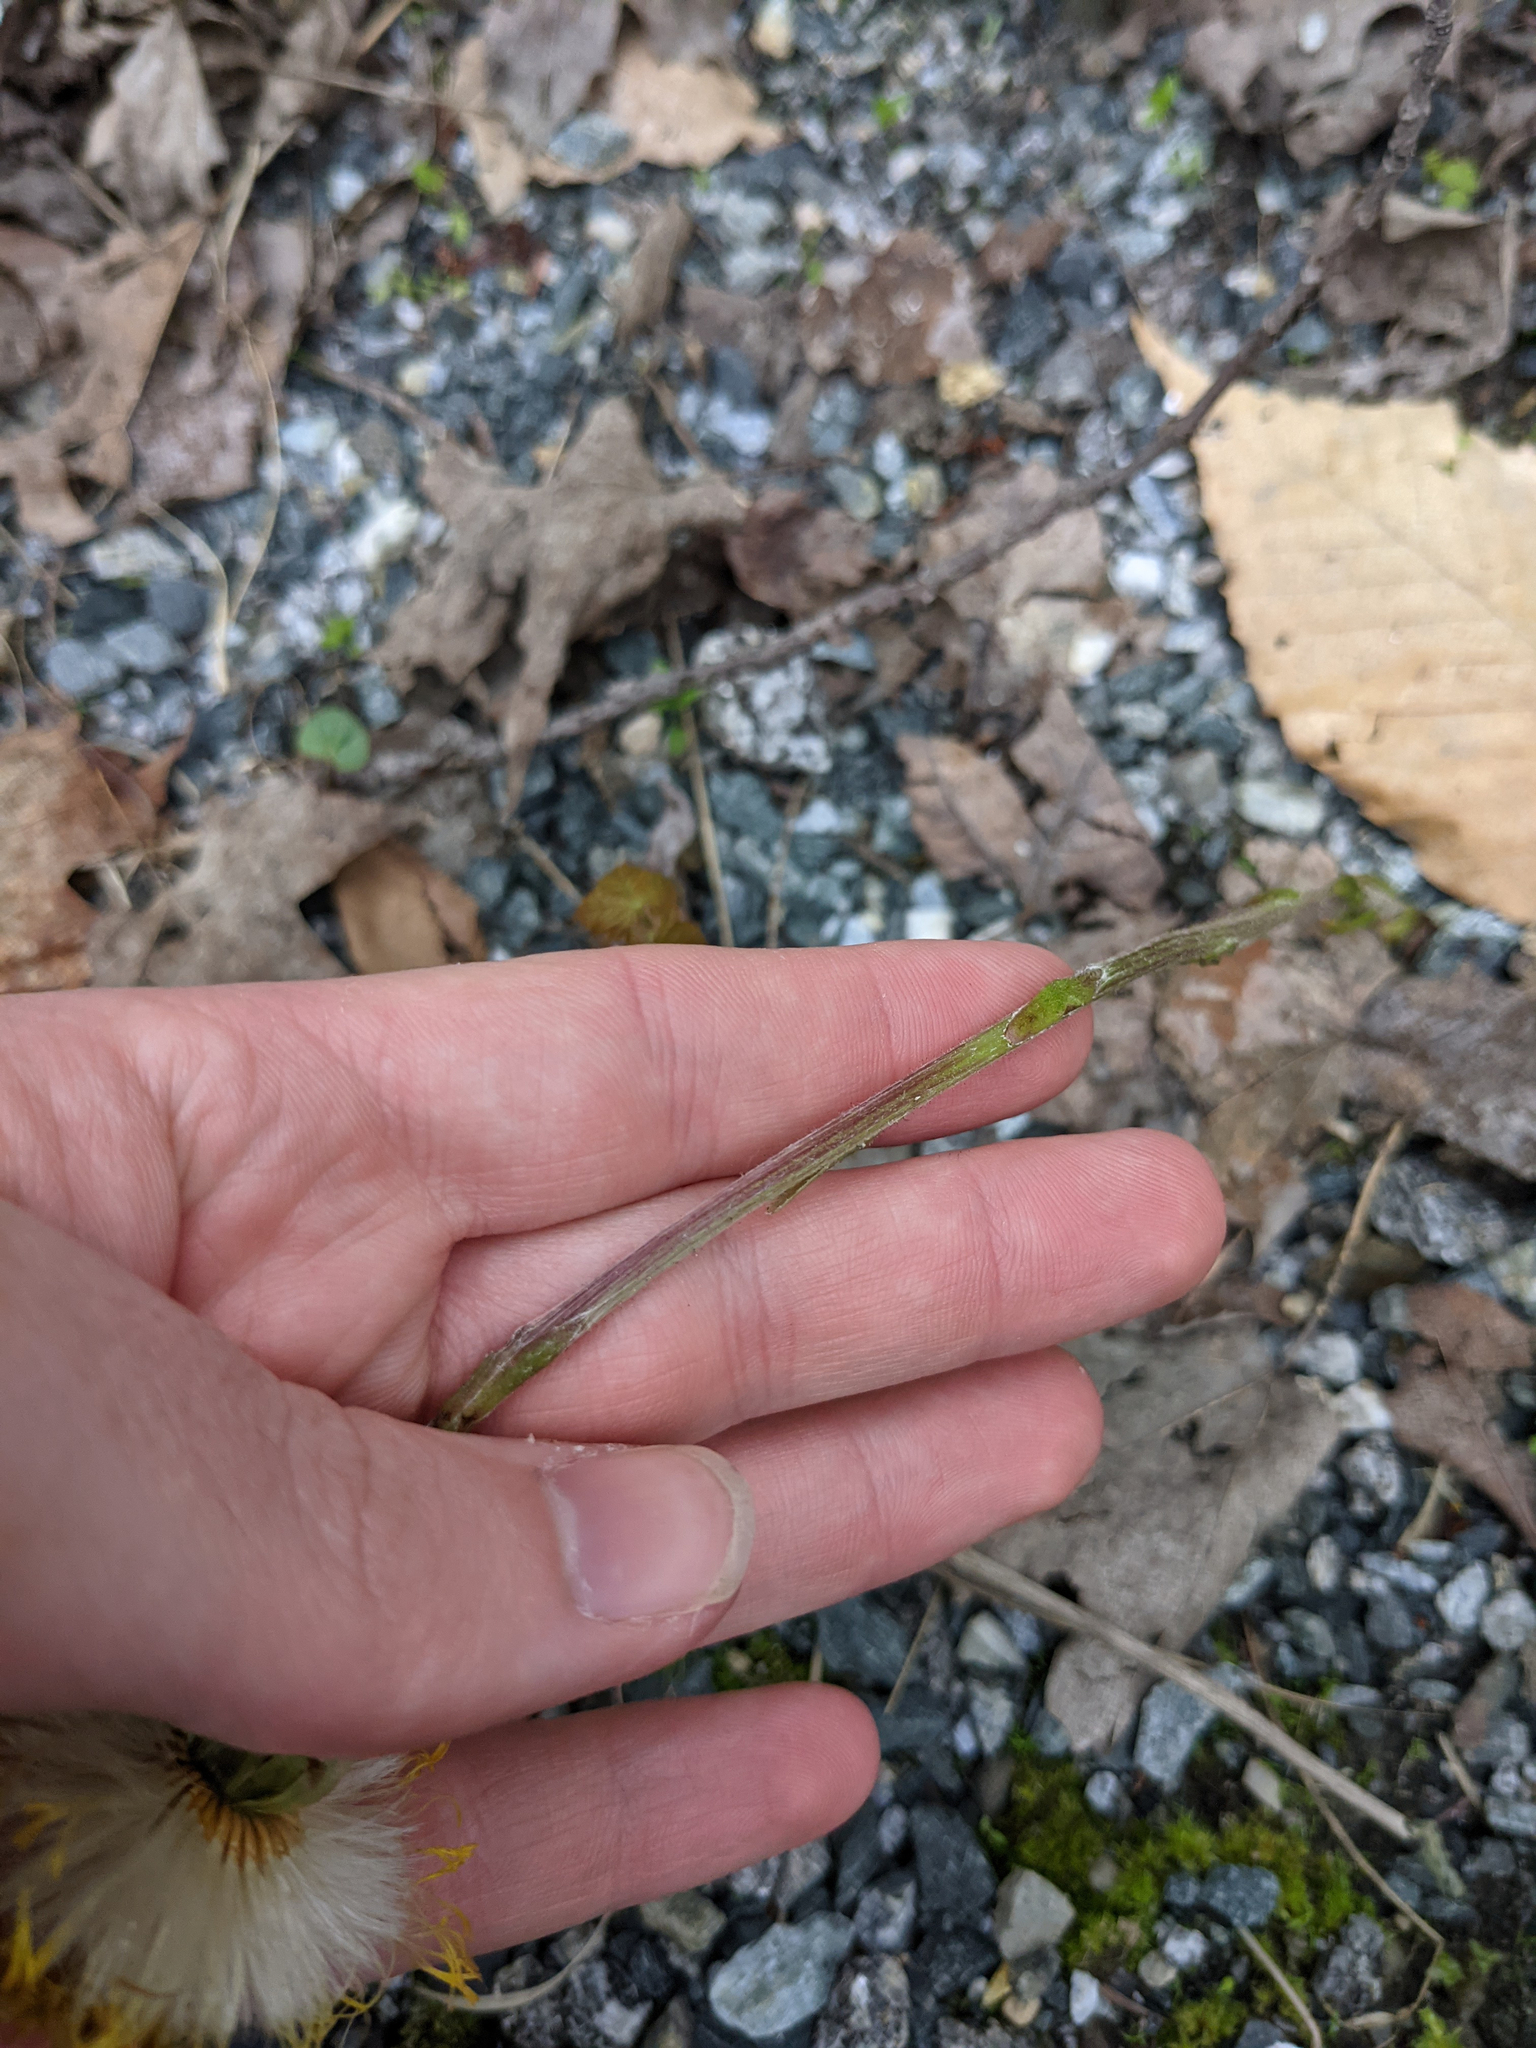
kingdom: Plantae
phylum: Tracheophyta
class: Magnoliopsida
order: Asterales
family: Asteraceae
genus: Tussilago
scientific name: Tussilago farfara
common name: Coltsfoot
